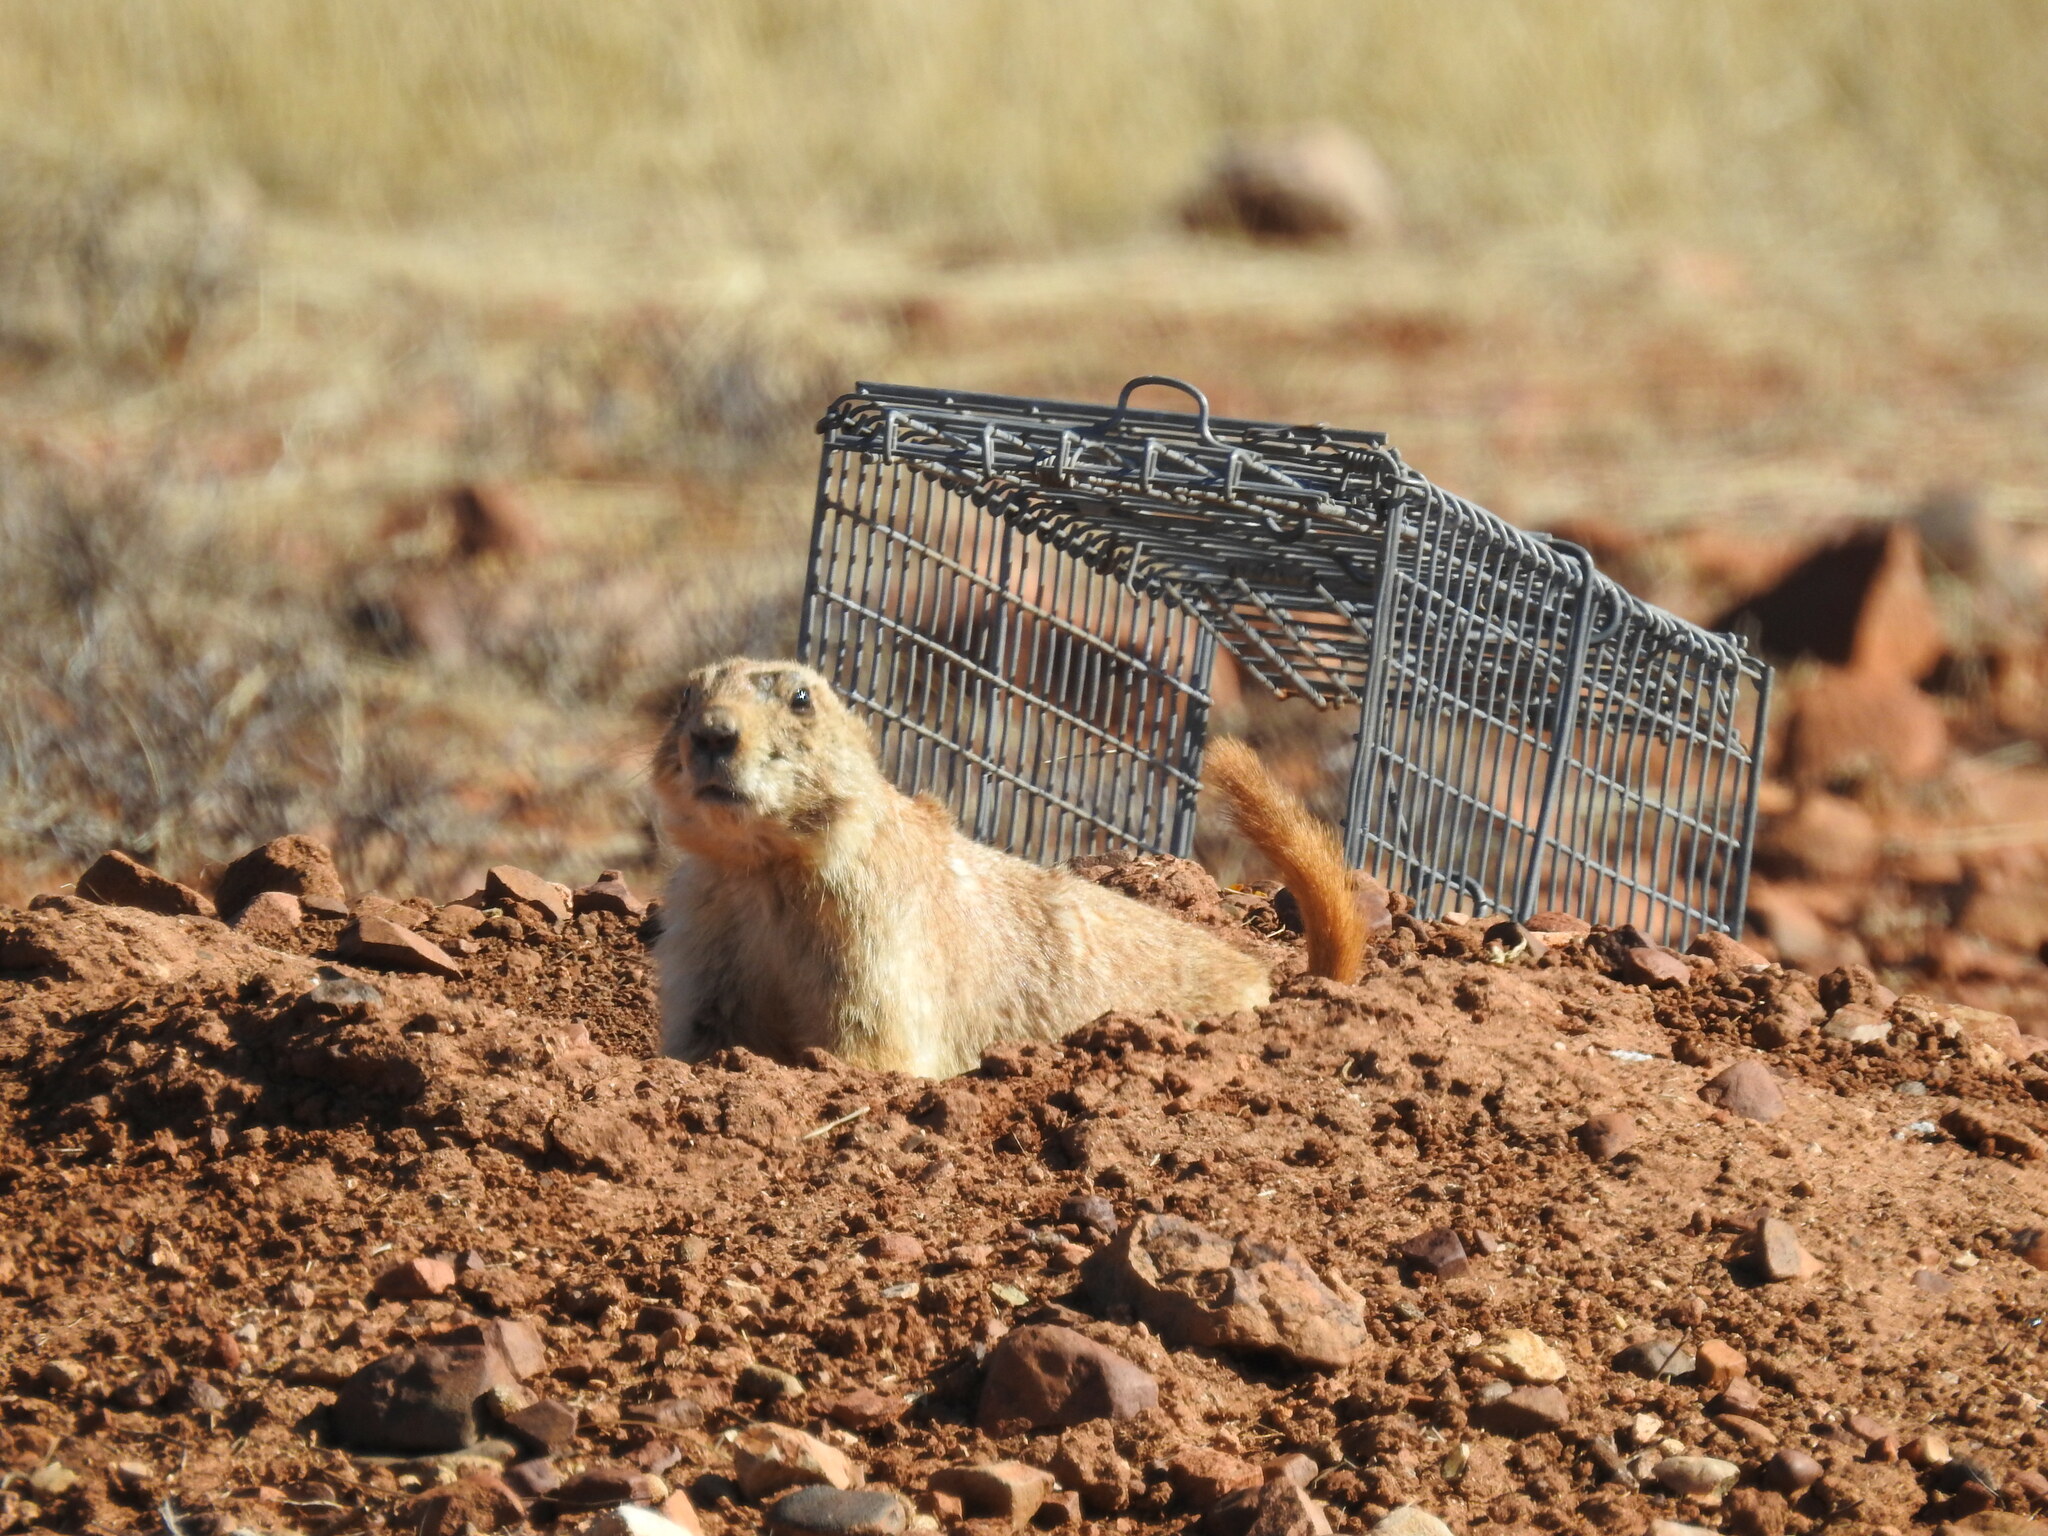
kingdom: Animalia
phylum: Chordata
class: Mammalia
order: Rodentia
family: Sciuridae
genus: Cynomys
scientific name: Cynomys ludovicianus
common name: Black-tailed prairie dog
